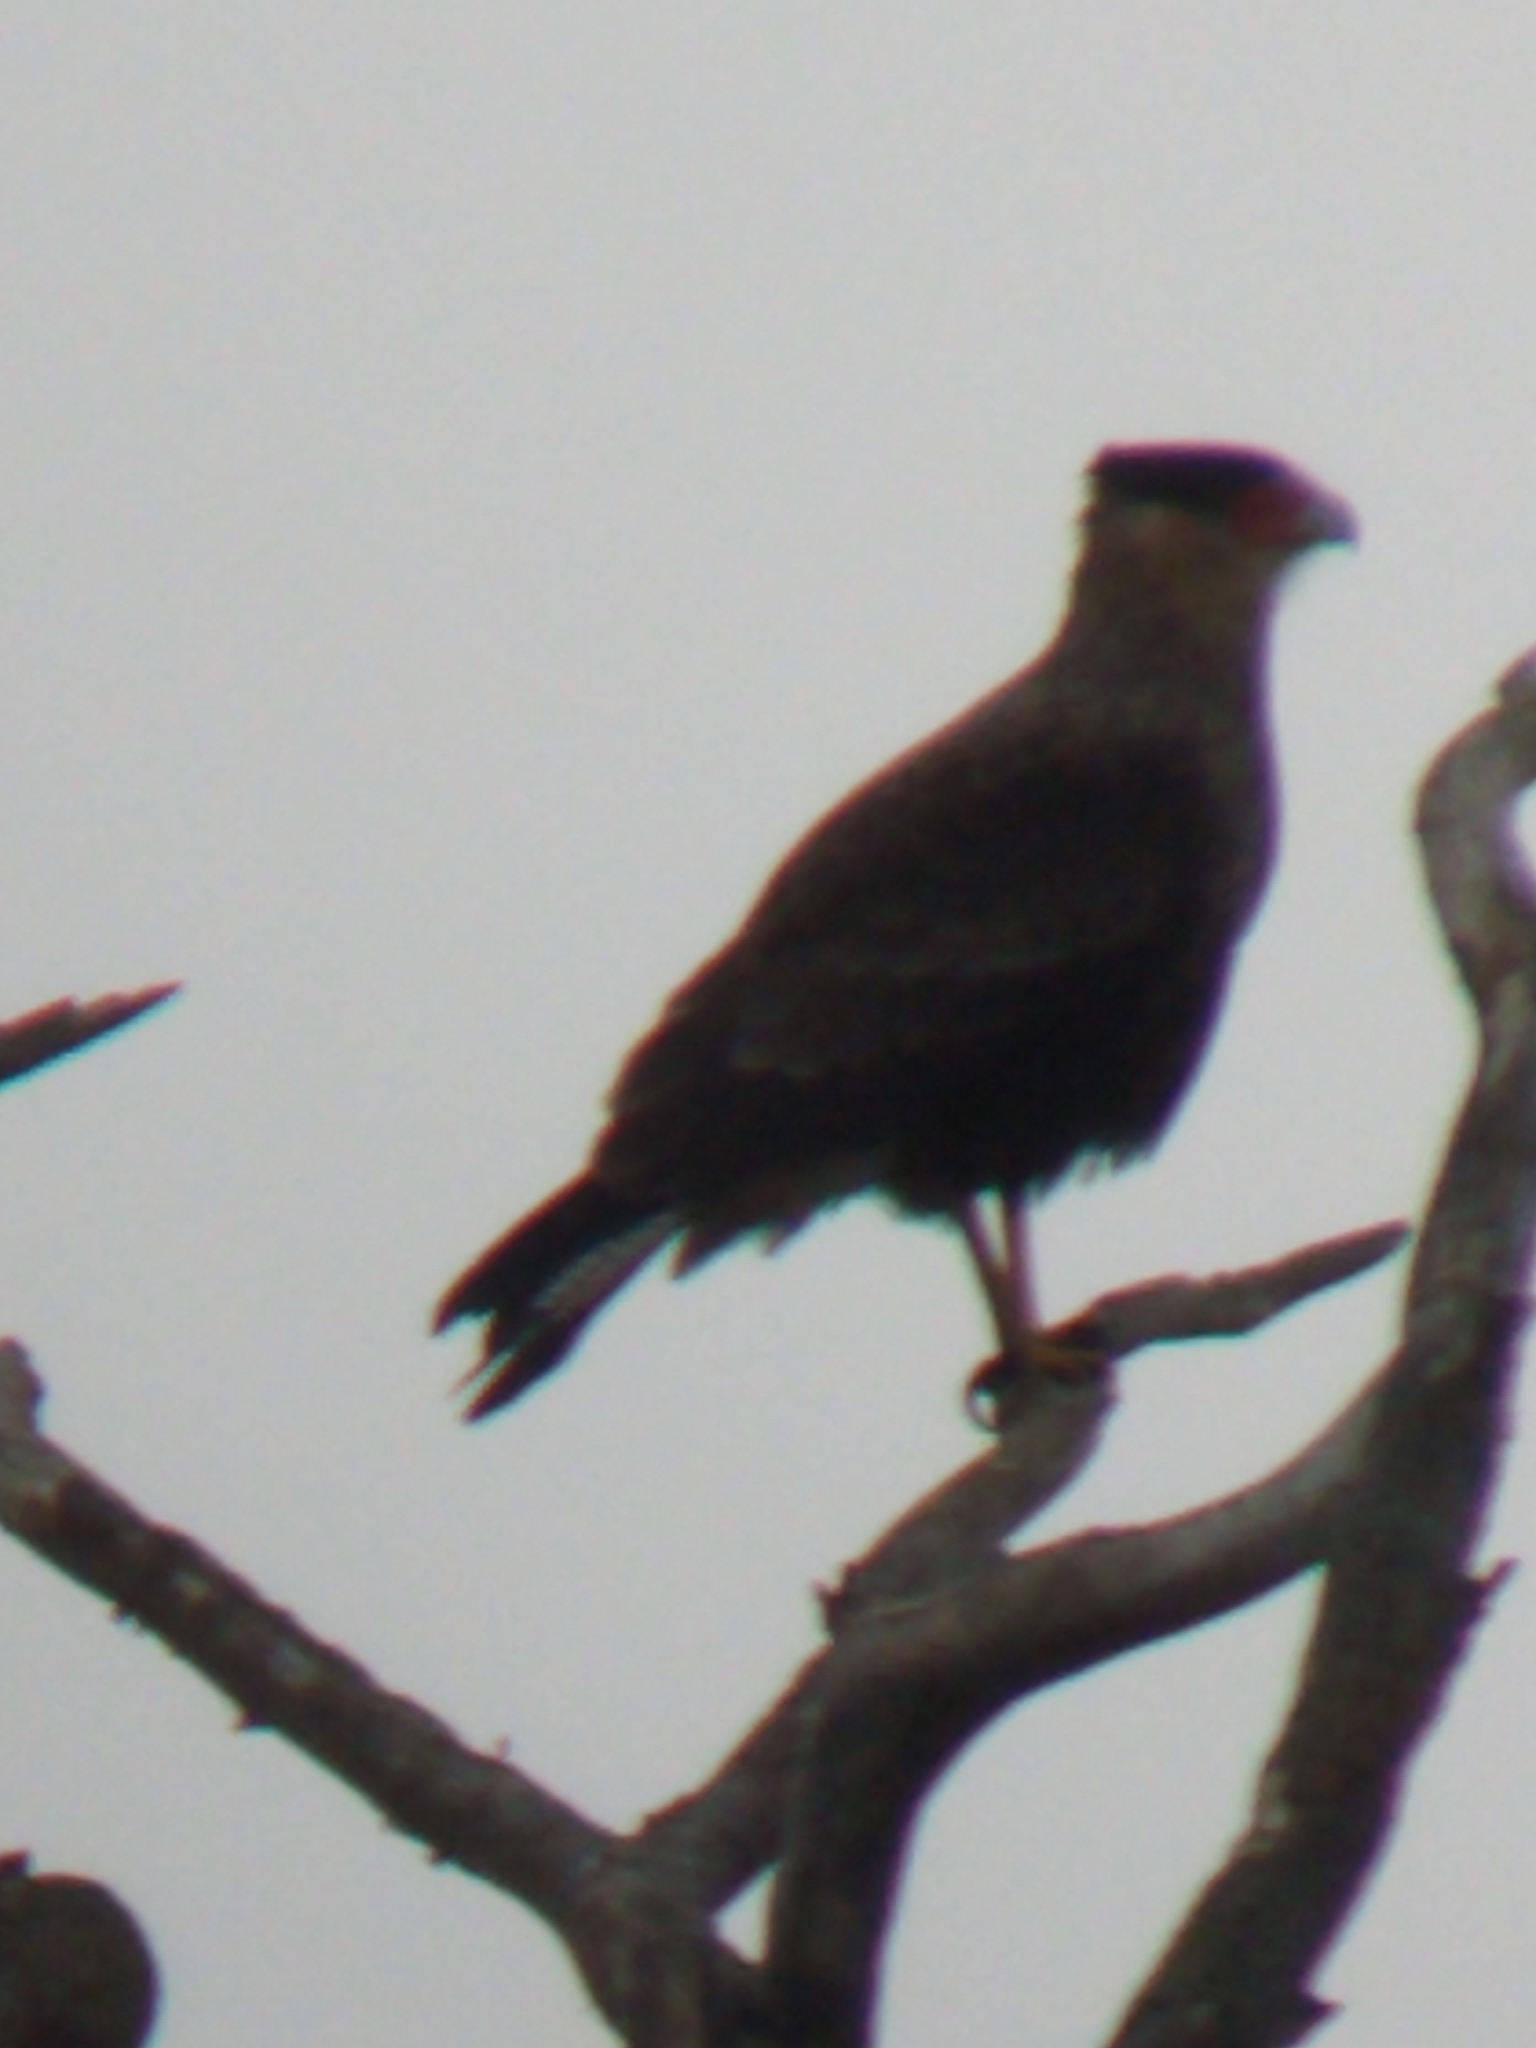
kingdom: Animalia
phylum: Chordata
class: Aves
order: Falconiformes
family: Falconidae
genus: Caracara
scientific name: Caracara plancus
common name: Southern caracara
